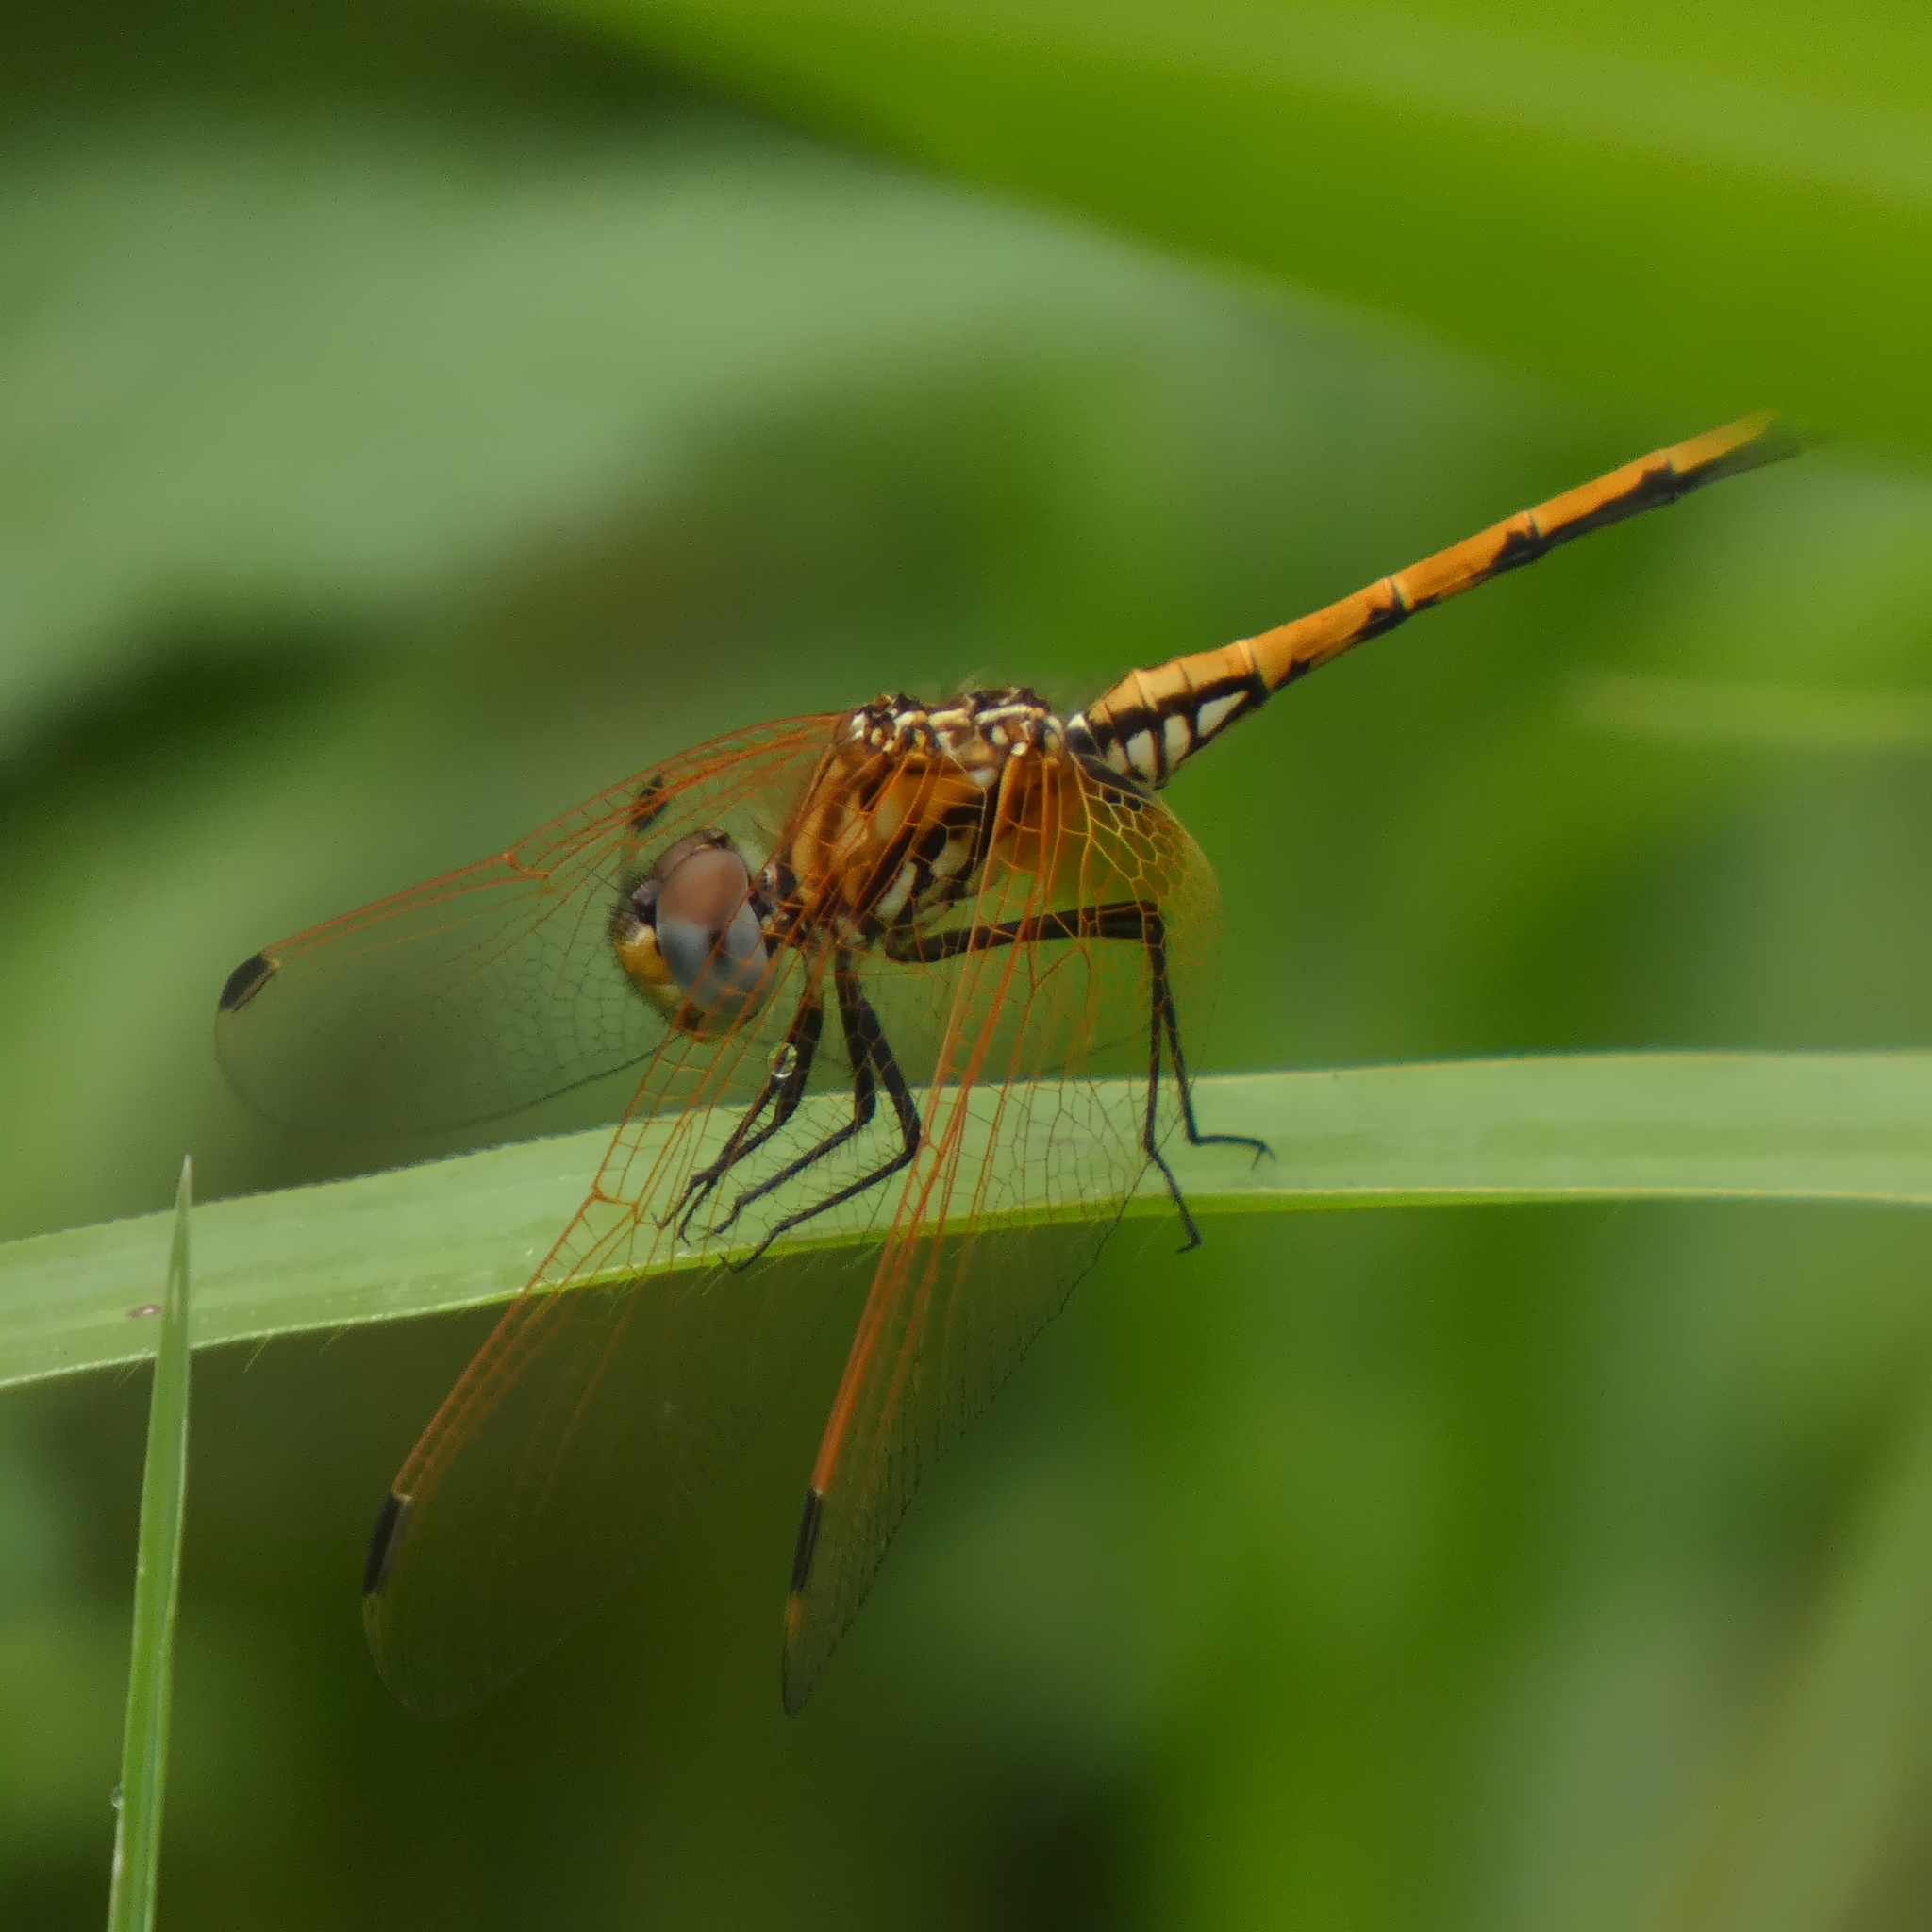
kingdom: Animalia
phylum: Arthropoda
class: Insecta
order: Odonata
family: Libellulidae
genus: Trithemis
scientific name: Trithemis arteriosa
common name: Red-veined dropwing
